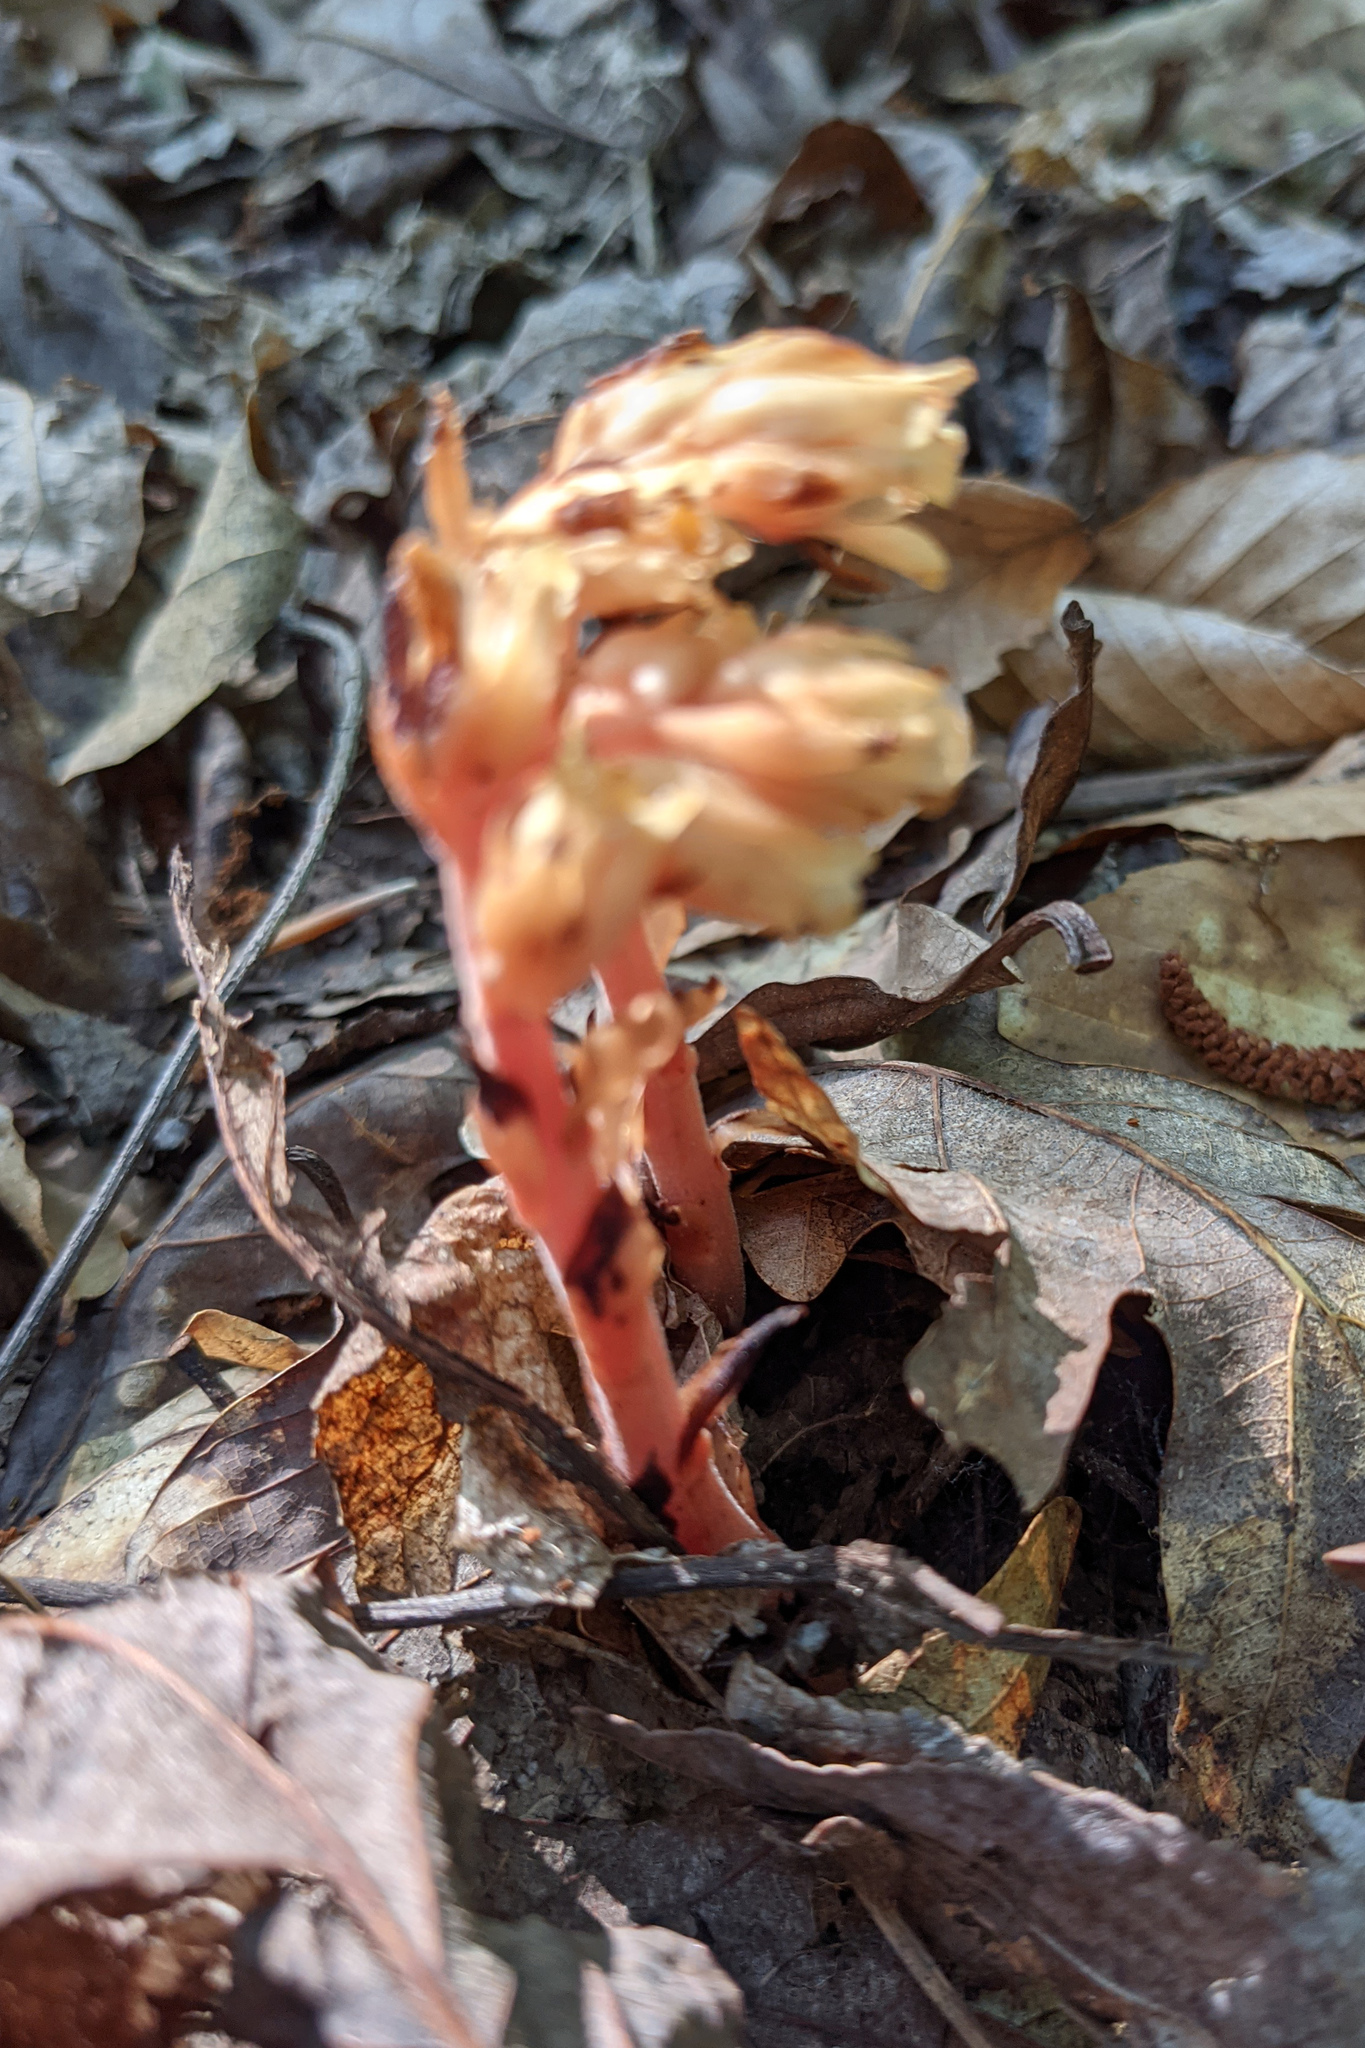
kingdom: Plantae
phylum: Tracheophyta
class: Magnoliopsida
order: Ericales
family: Ericaceae
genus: Hypopitys
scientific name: Hypopitys monotropa
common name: Yellow bird's-nest
